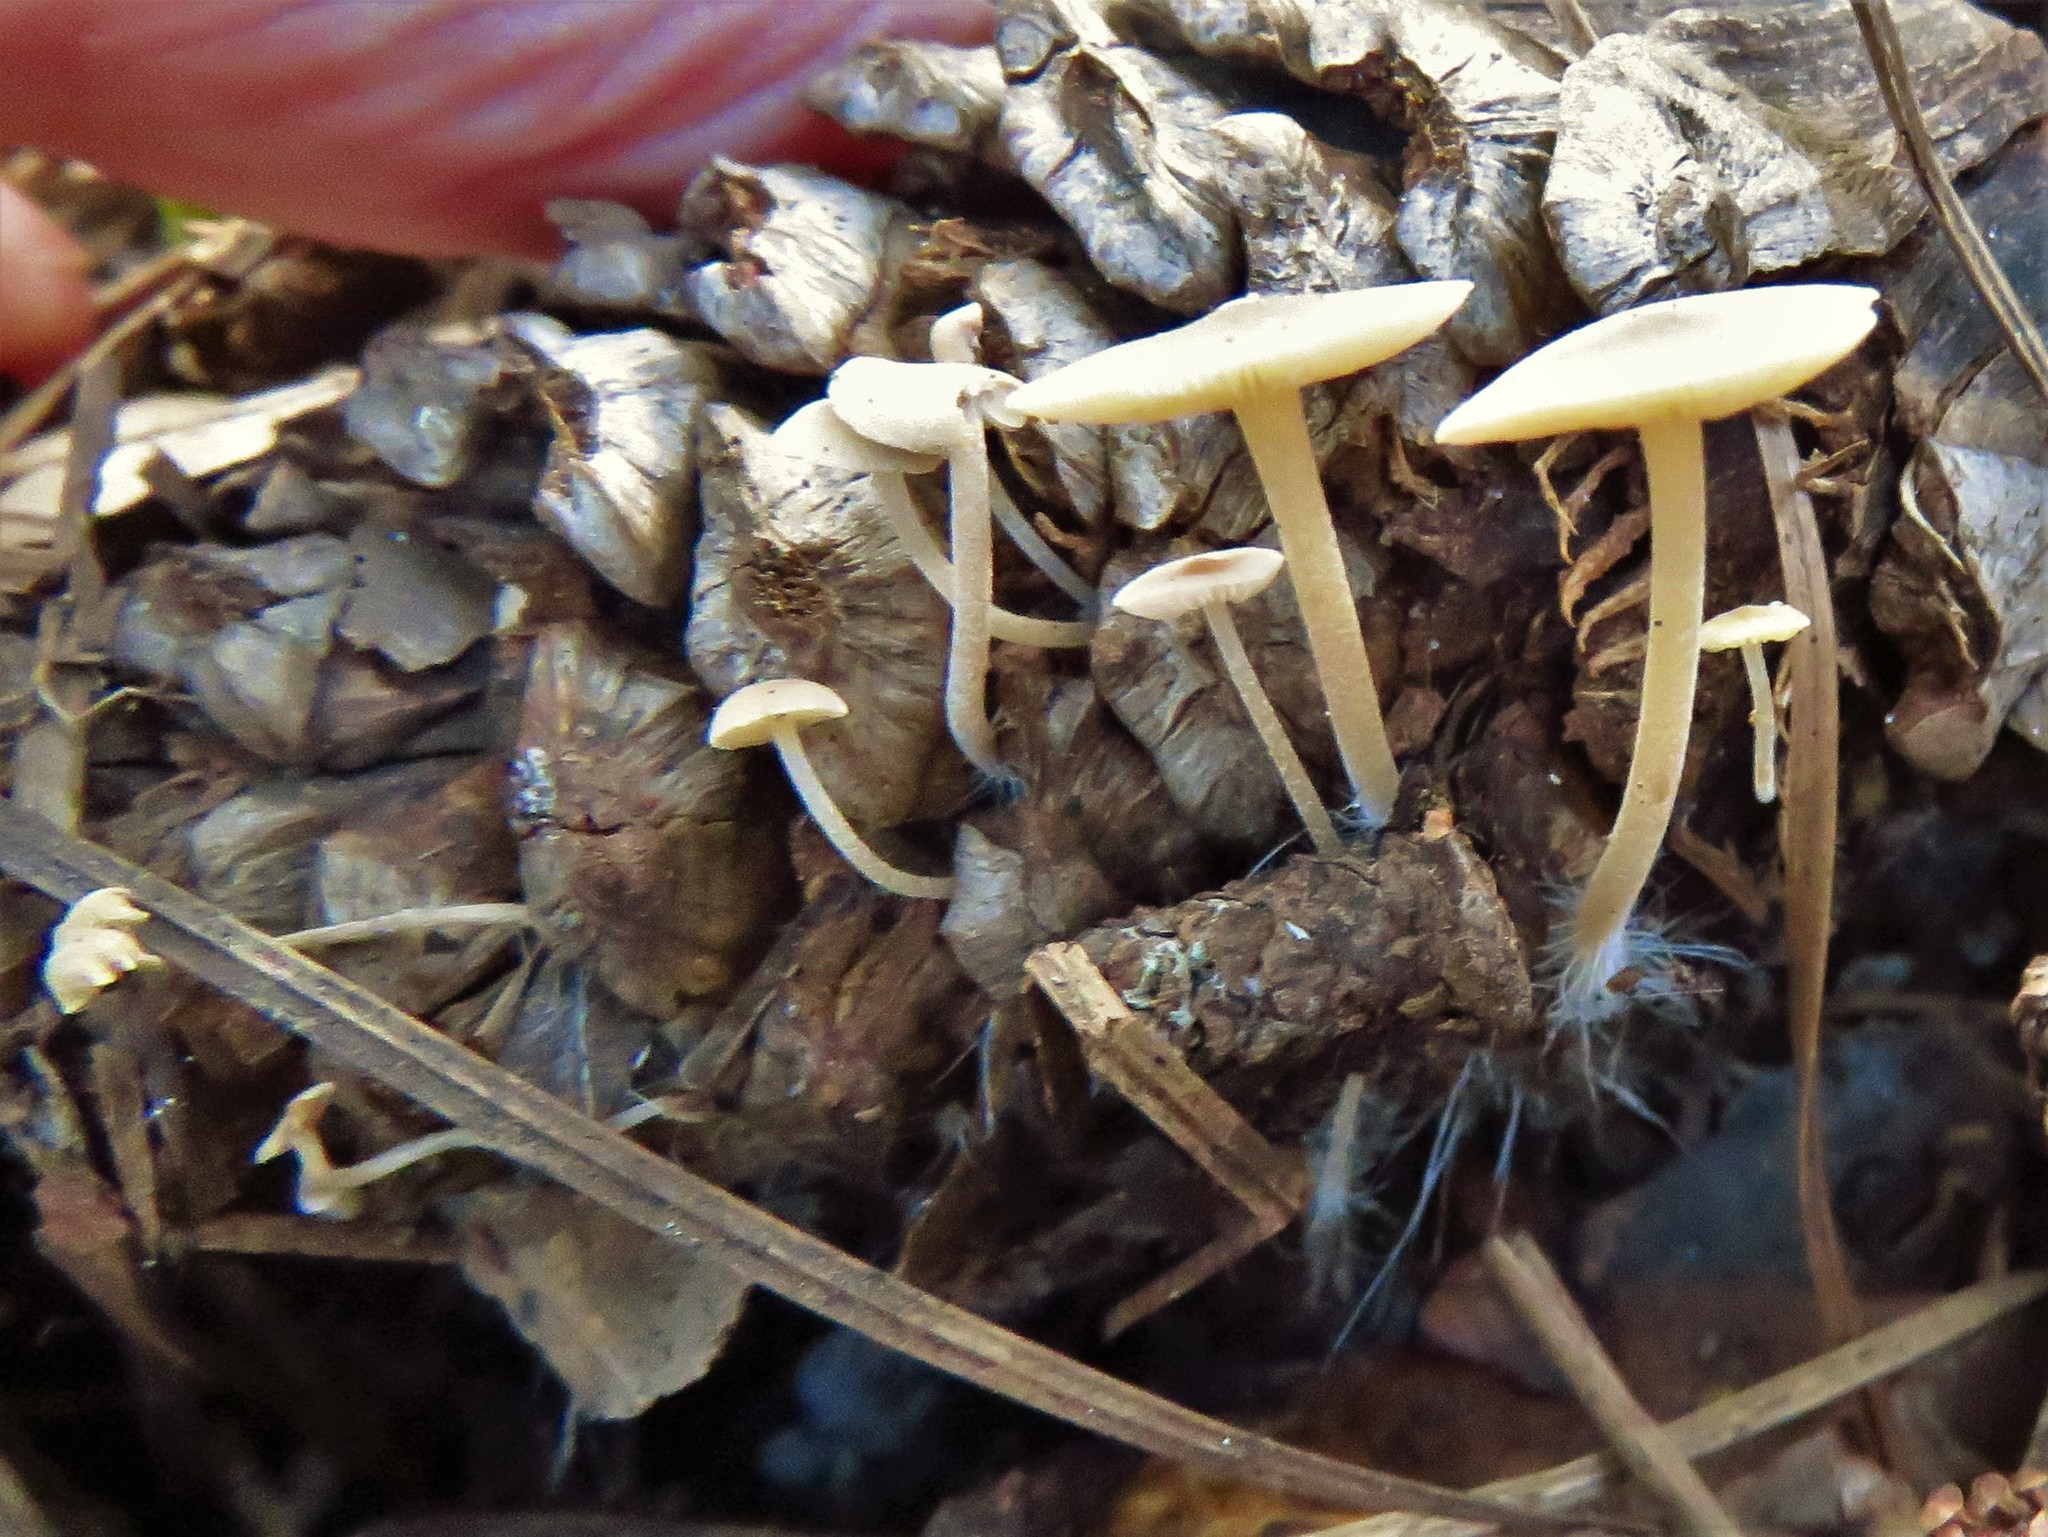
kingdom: Fungi
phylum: Basidiomycota
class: Agaricomycetes
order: Agaricales
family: Marasmiaceae
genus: Baeospora
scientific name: Baeospora myosura
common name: Conifercone cap
